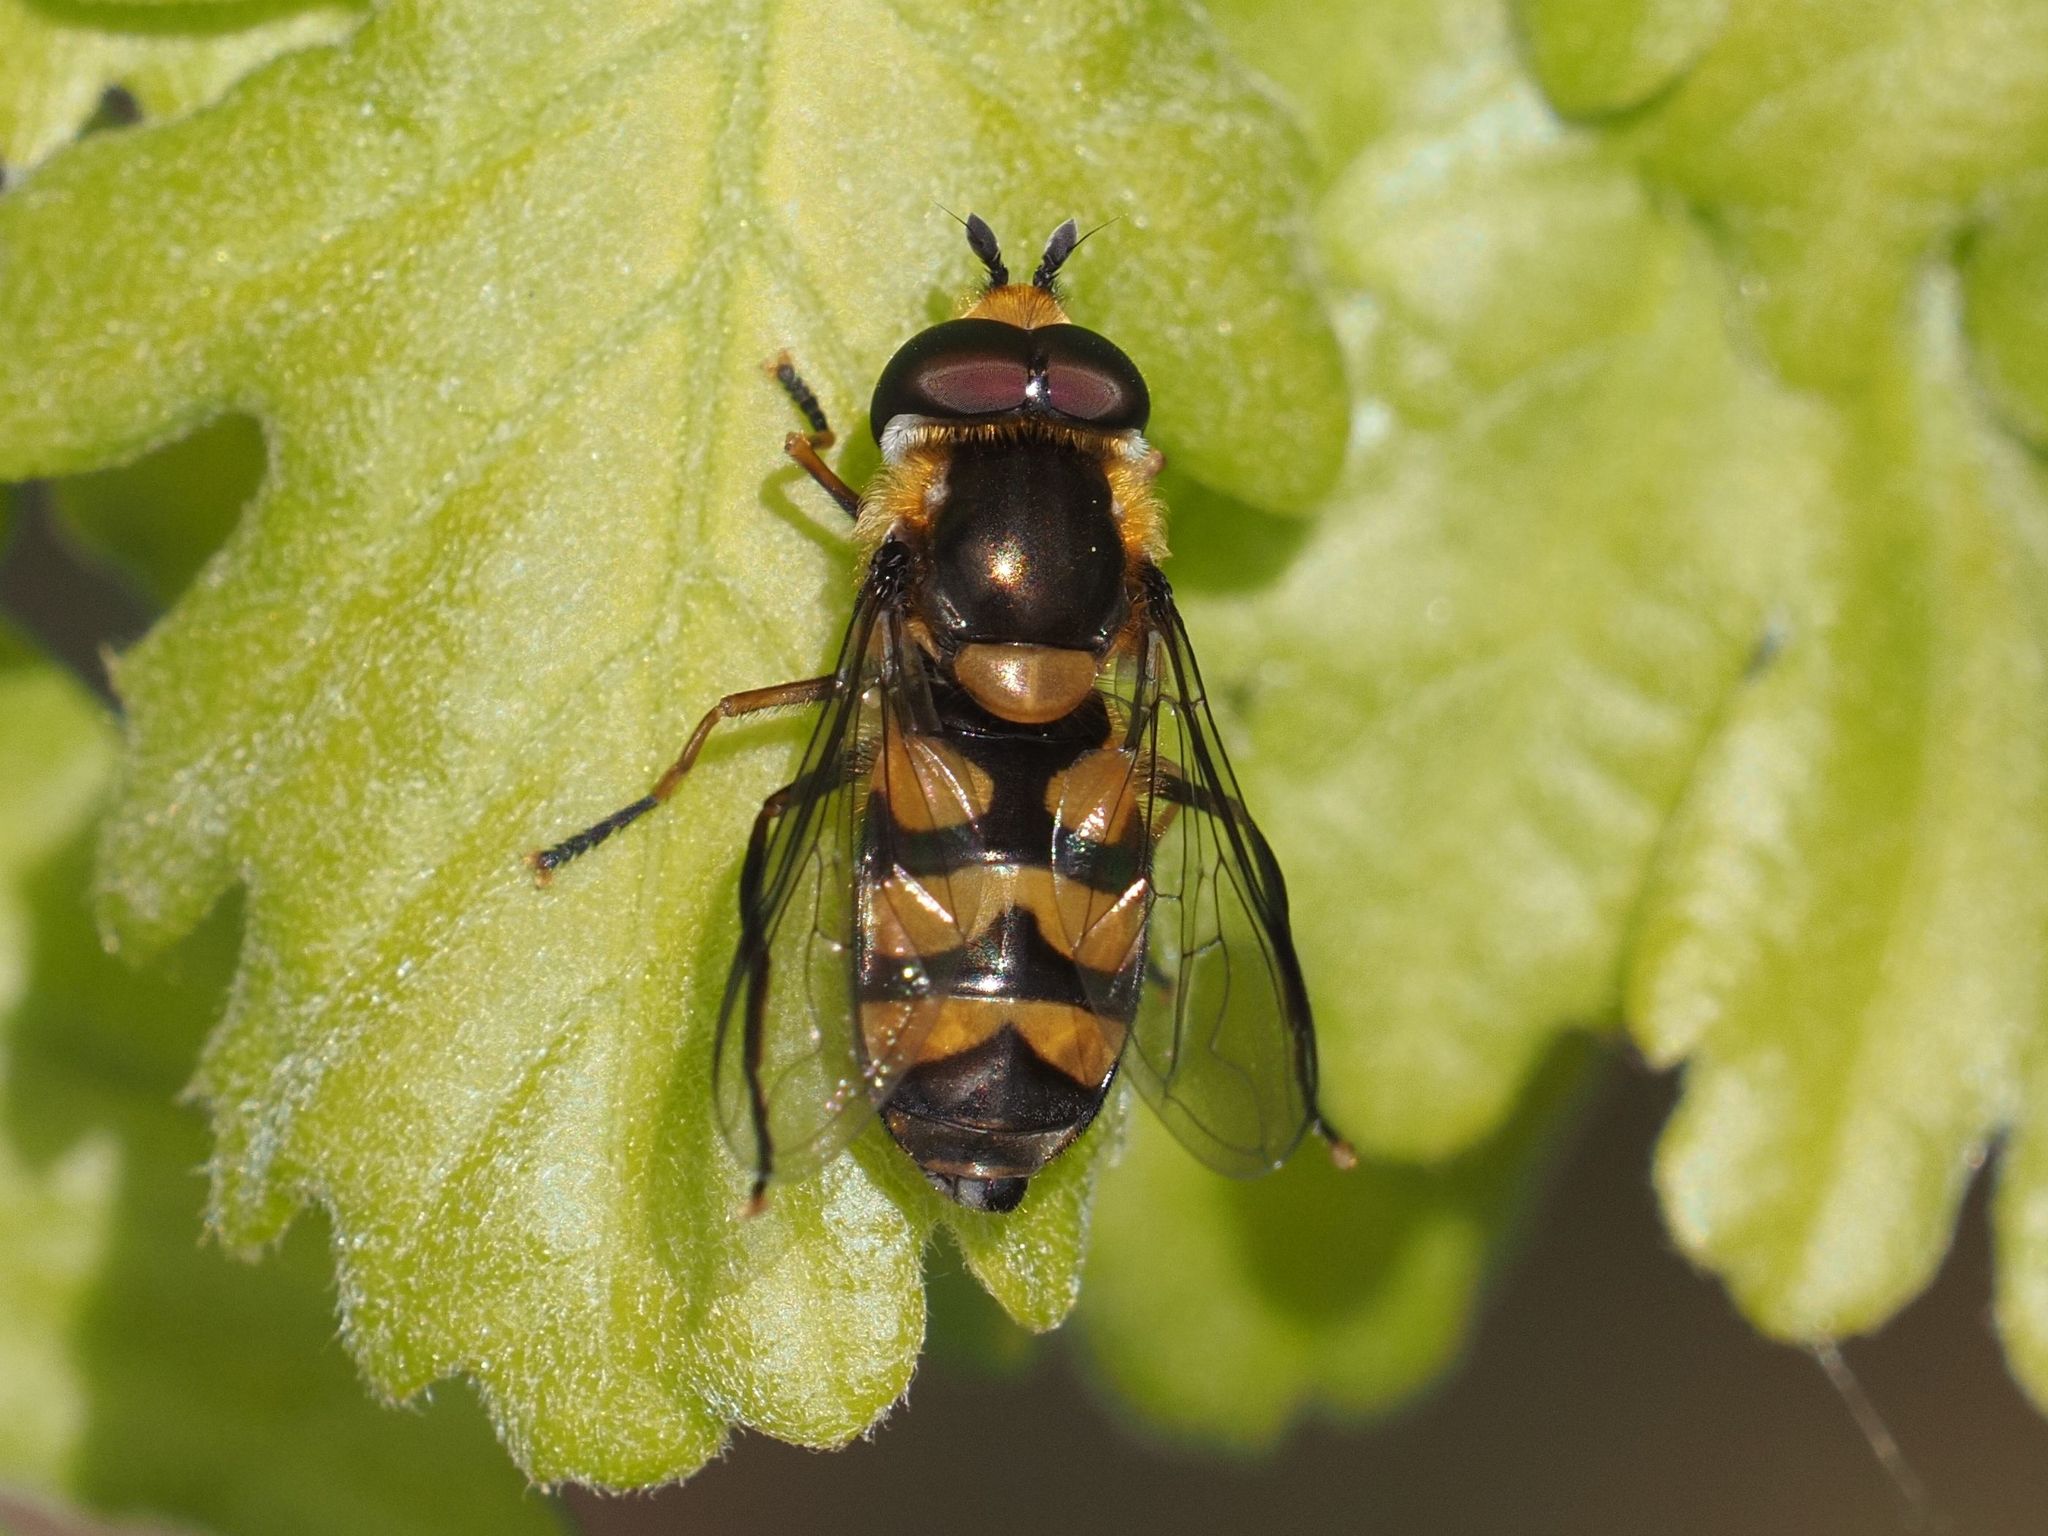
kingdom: Animalia
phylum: Arthropoda
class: Insecta
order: Diptera
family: Syrphidae
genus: Didea
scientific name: Didea fasciata
